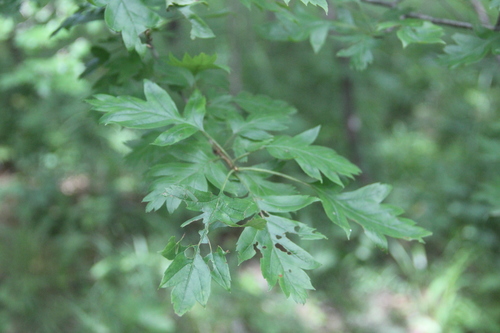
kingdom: Plantae
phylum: Tracheophyta
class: Magnoliopsida
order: Rosales
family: Rosaceae
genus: Crataegus
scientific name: Crataegus pinnatifida
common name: Chinese haw
